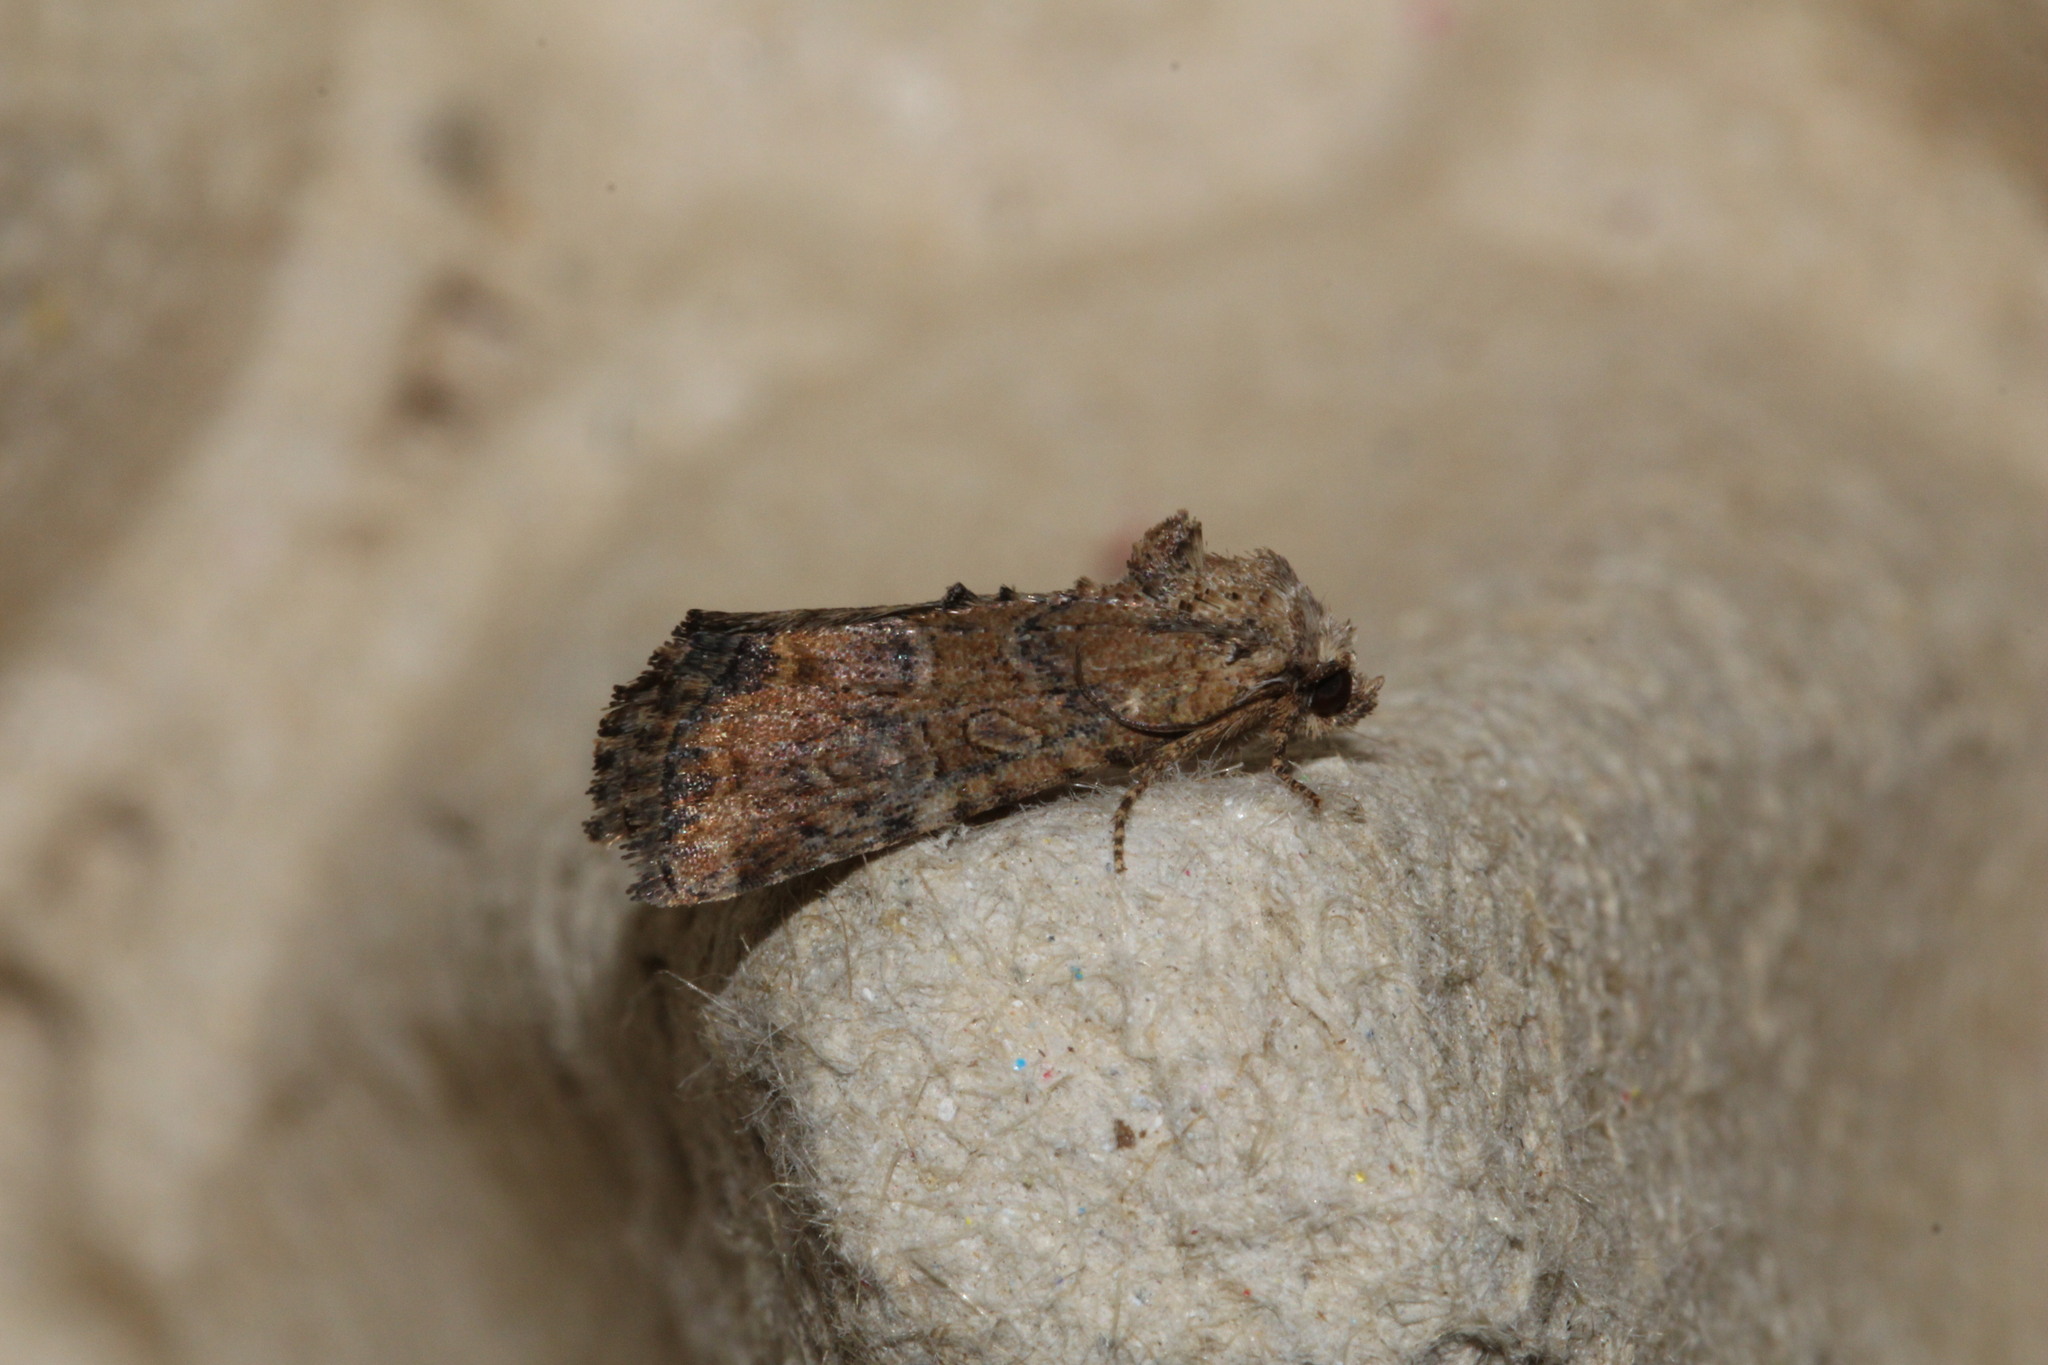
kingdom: Animalia
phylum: Arthropoda
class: Insecta
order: Lepidoptera
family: Noctuidae
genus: Mesoligia
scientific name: Mesoligia furuncula
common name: Cloaked minor
